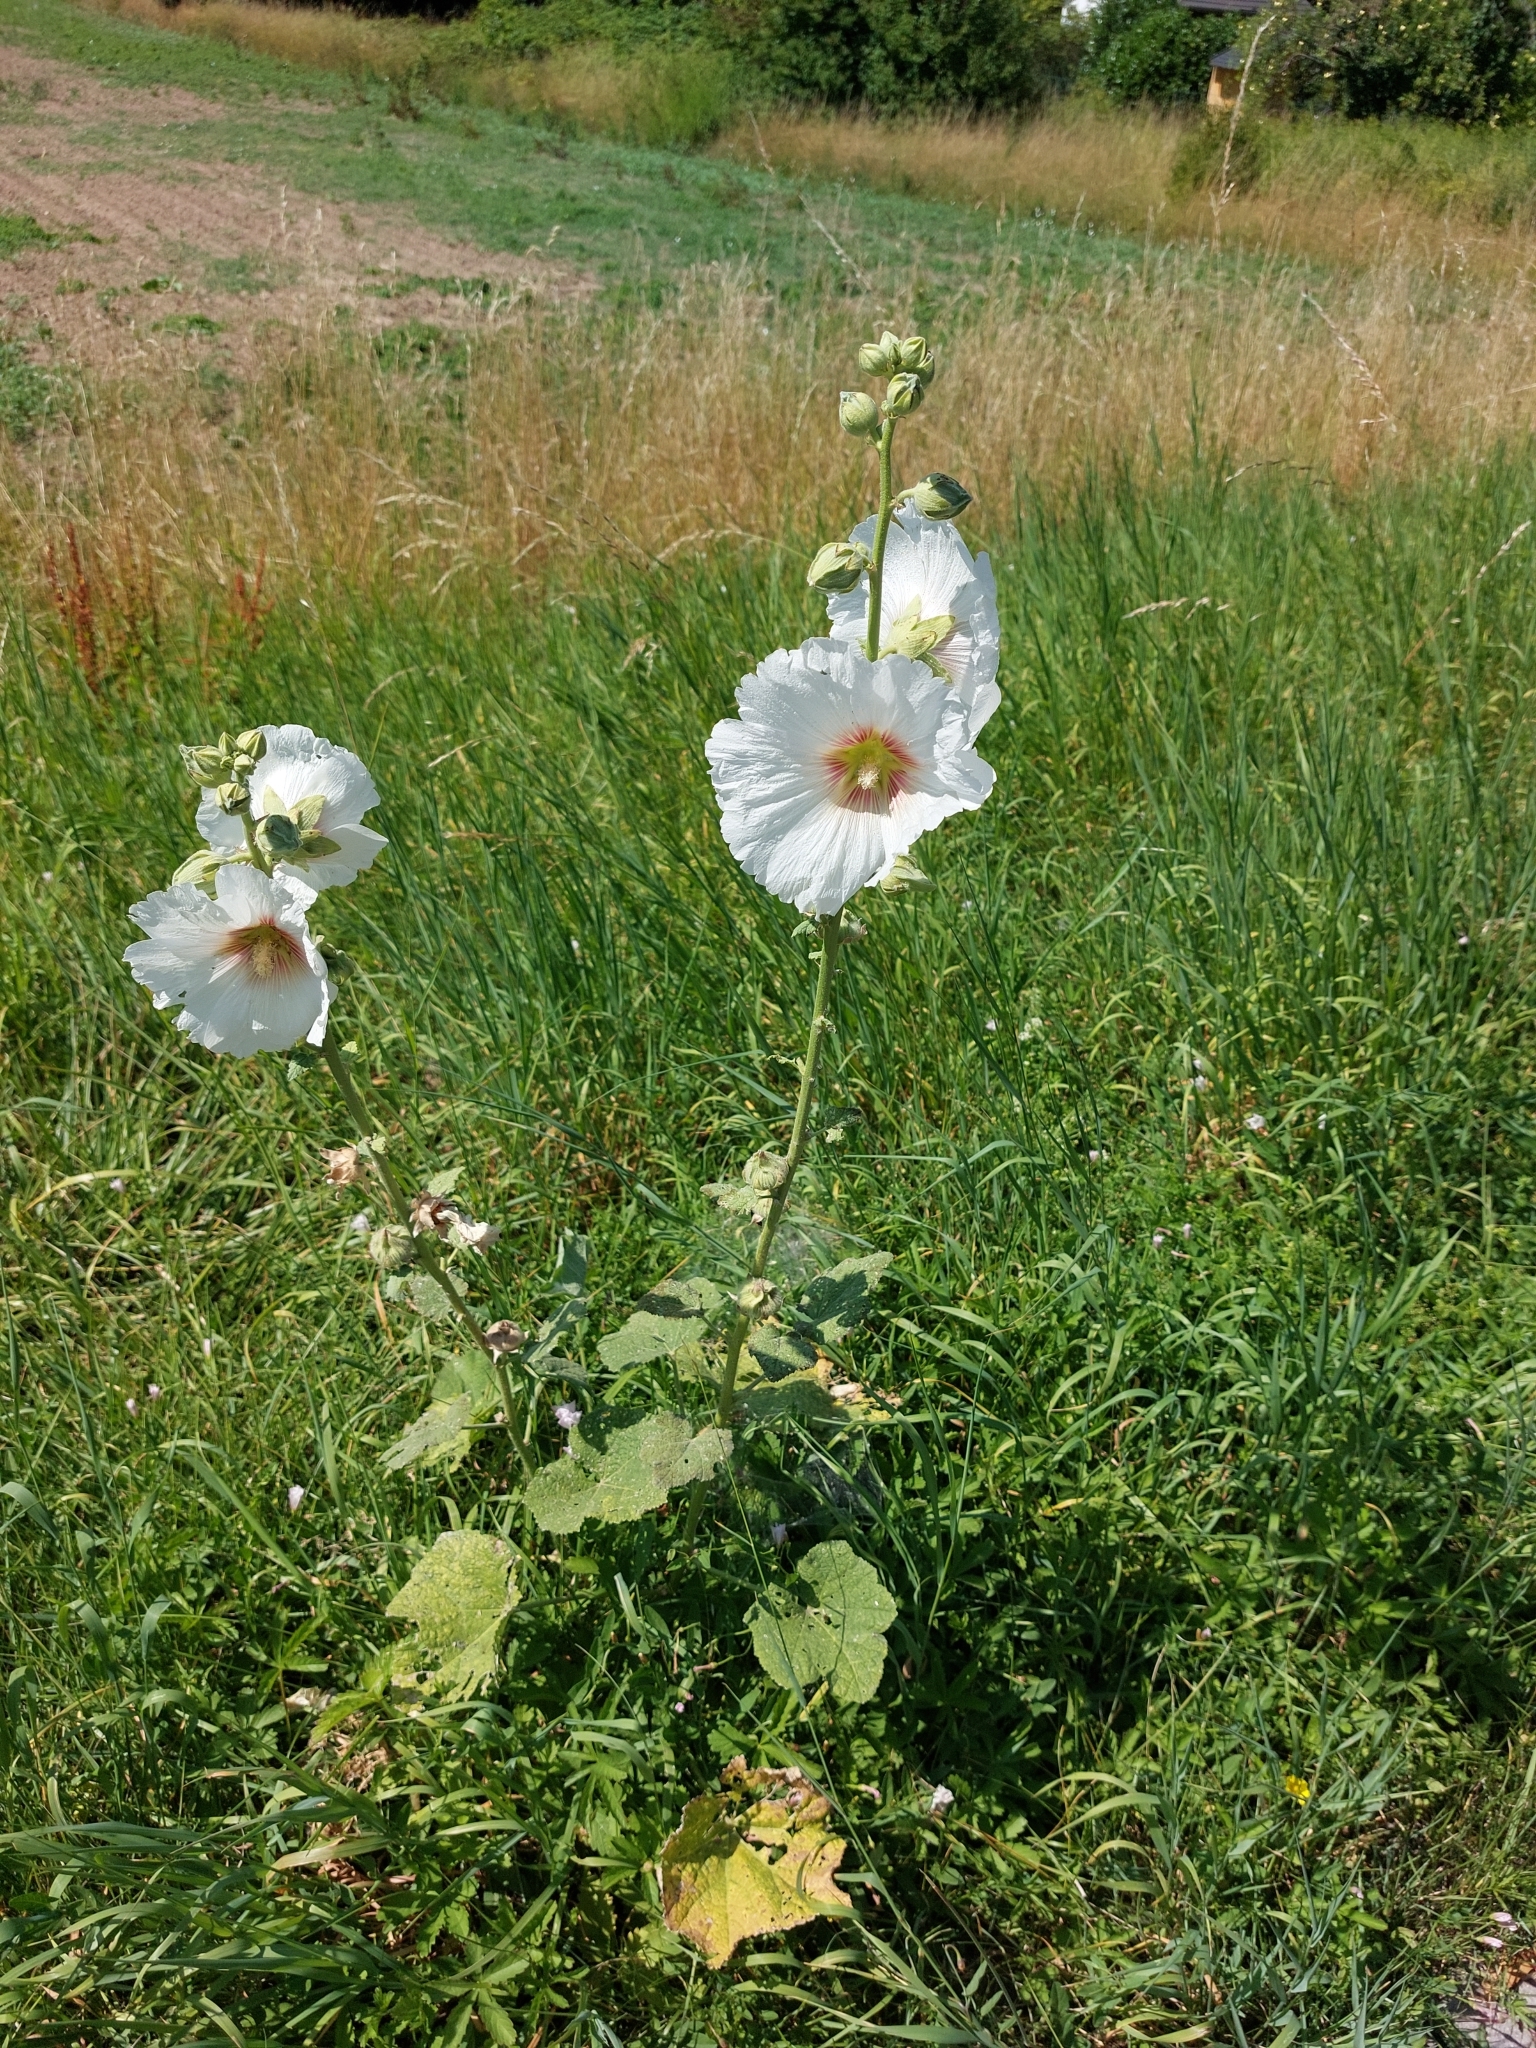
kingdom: Plantae
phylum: Tracheophyta
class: Magnoliopsida
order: Malvales
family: Malvaceae
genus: Alcea
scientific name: Alcea rosea
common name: Hollyhock
